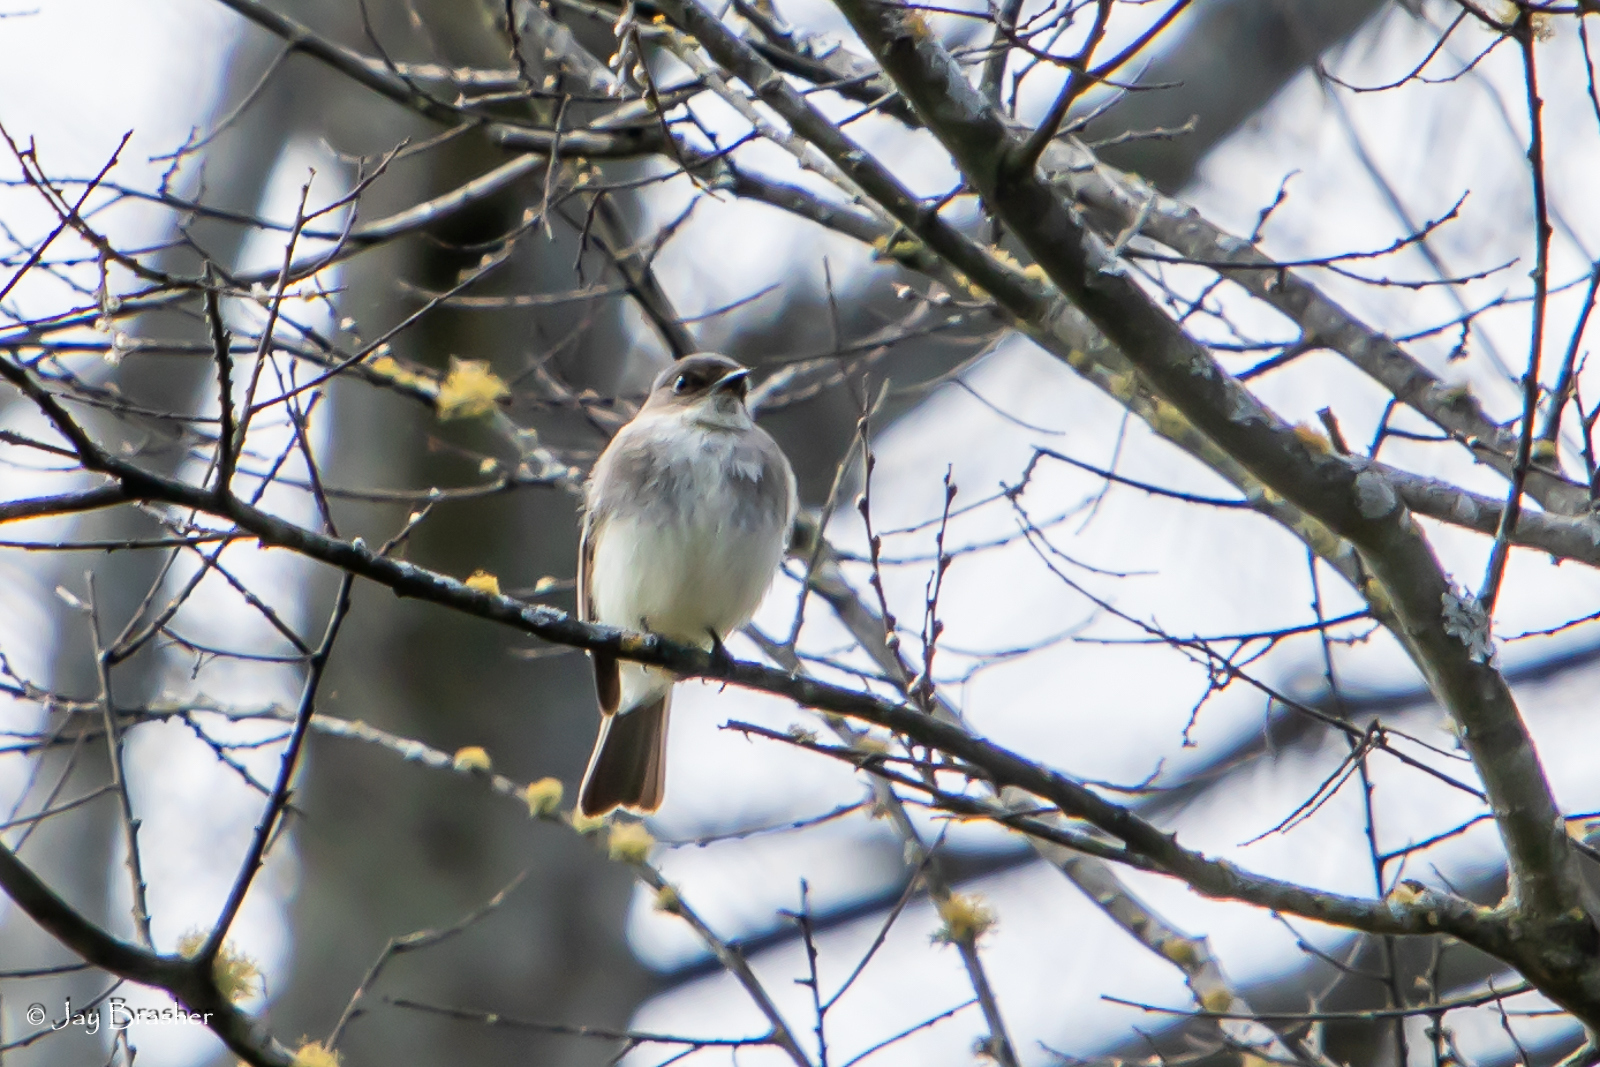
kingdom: Animalia
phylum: Chordata
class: Aves
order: Passeriformes
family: Tyrannidae
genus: Sayornis
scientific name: Sayornis phoebe
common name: Eastern phoebe
